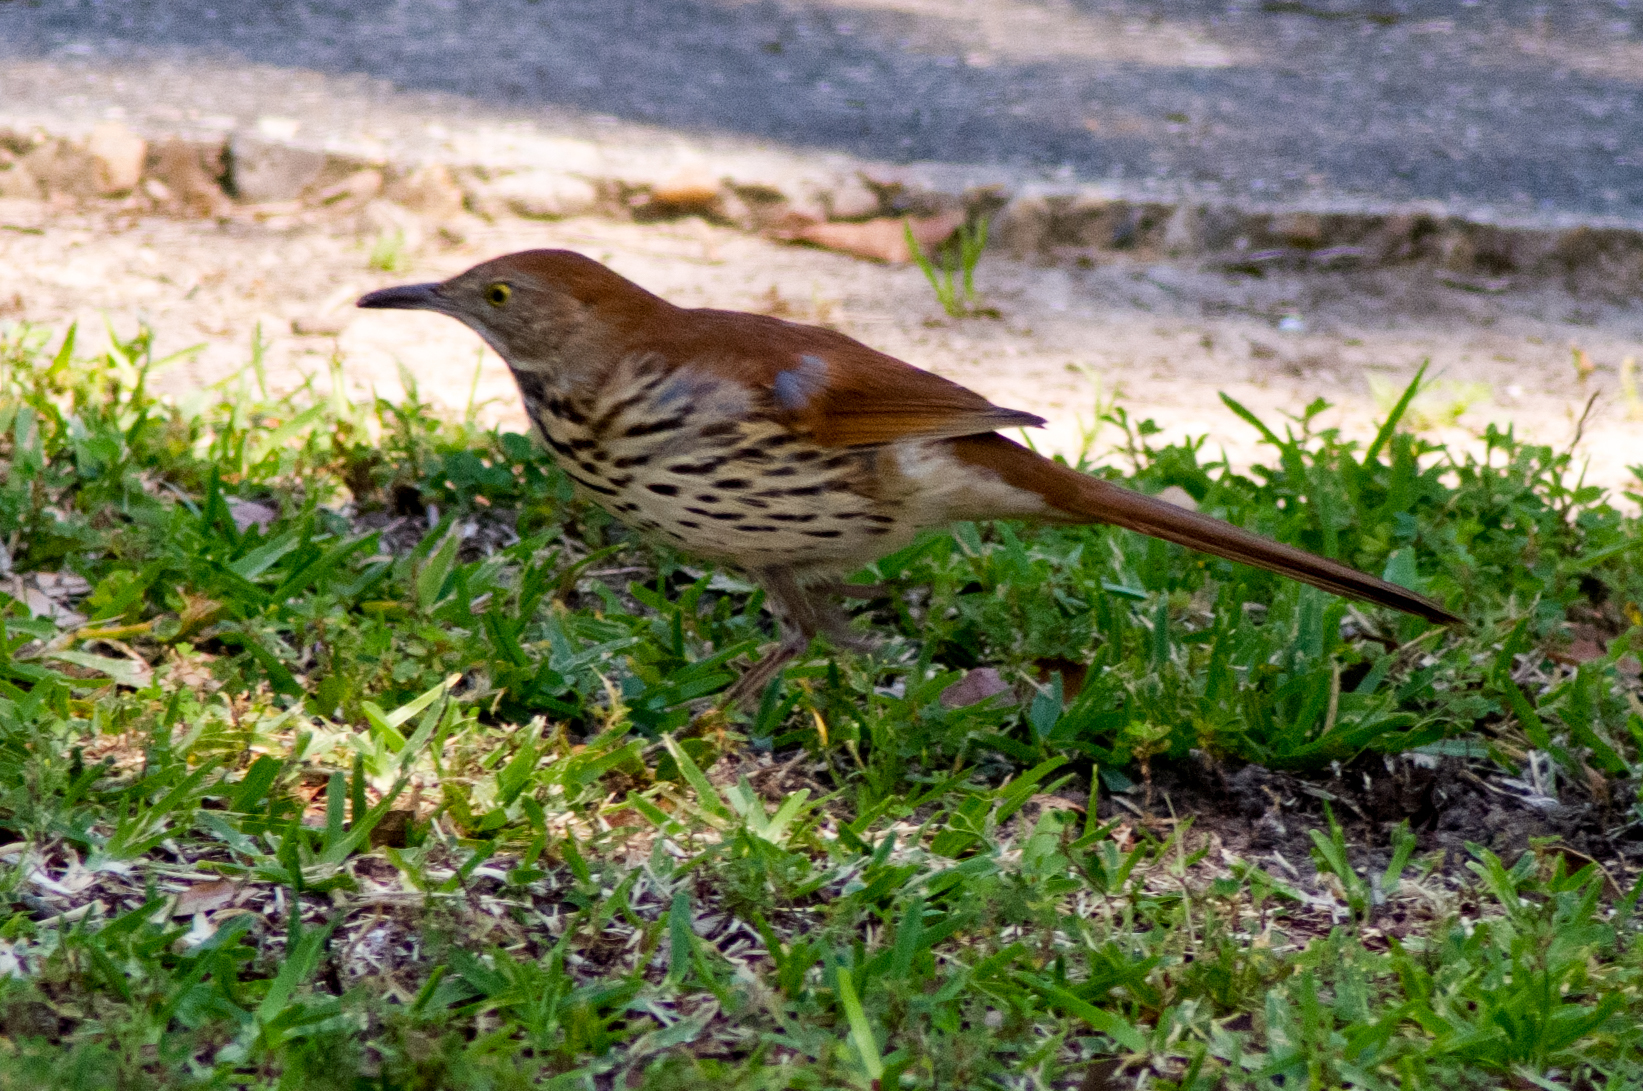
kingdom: Animalia
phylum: Chordata
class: Aves
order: Passeriformes
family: Mimidae
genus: Toxostoma
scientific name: Toxostoma rufum
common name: Brown thrasher
